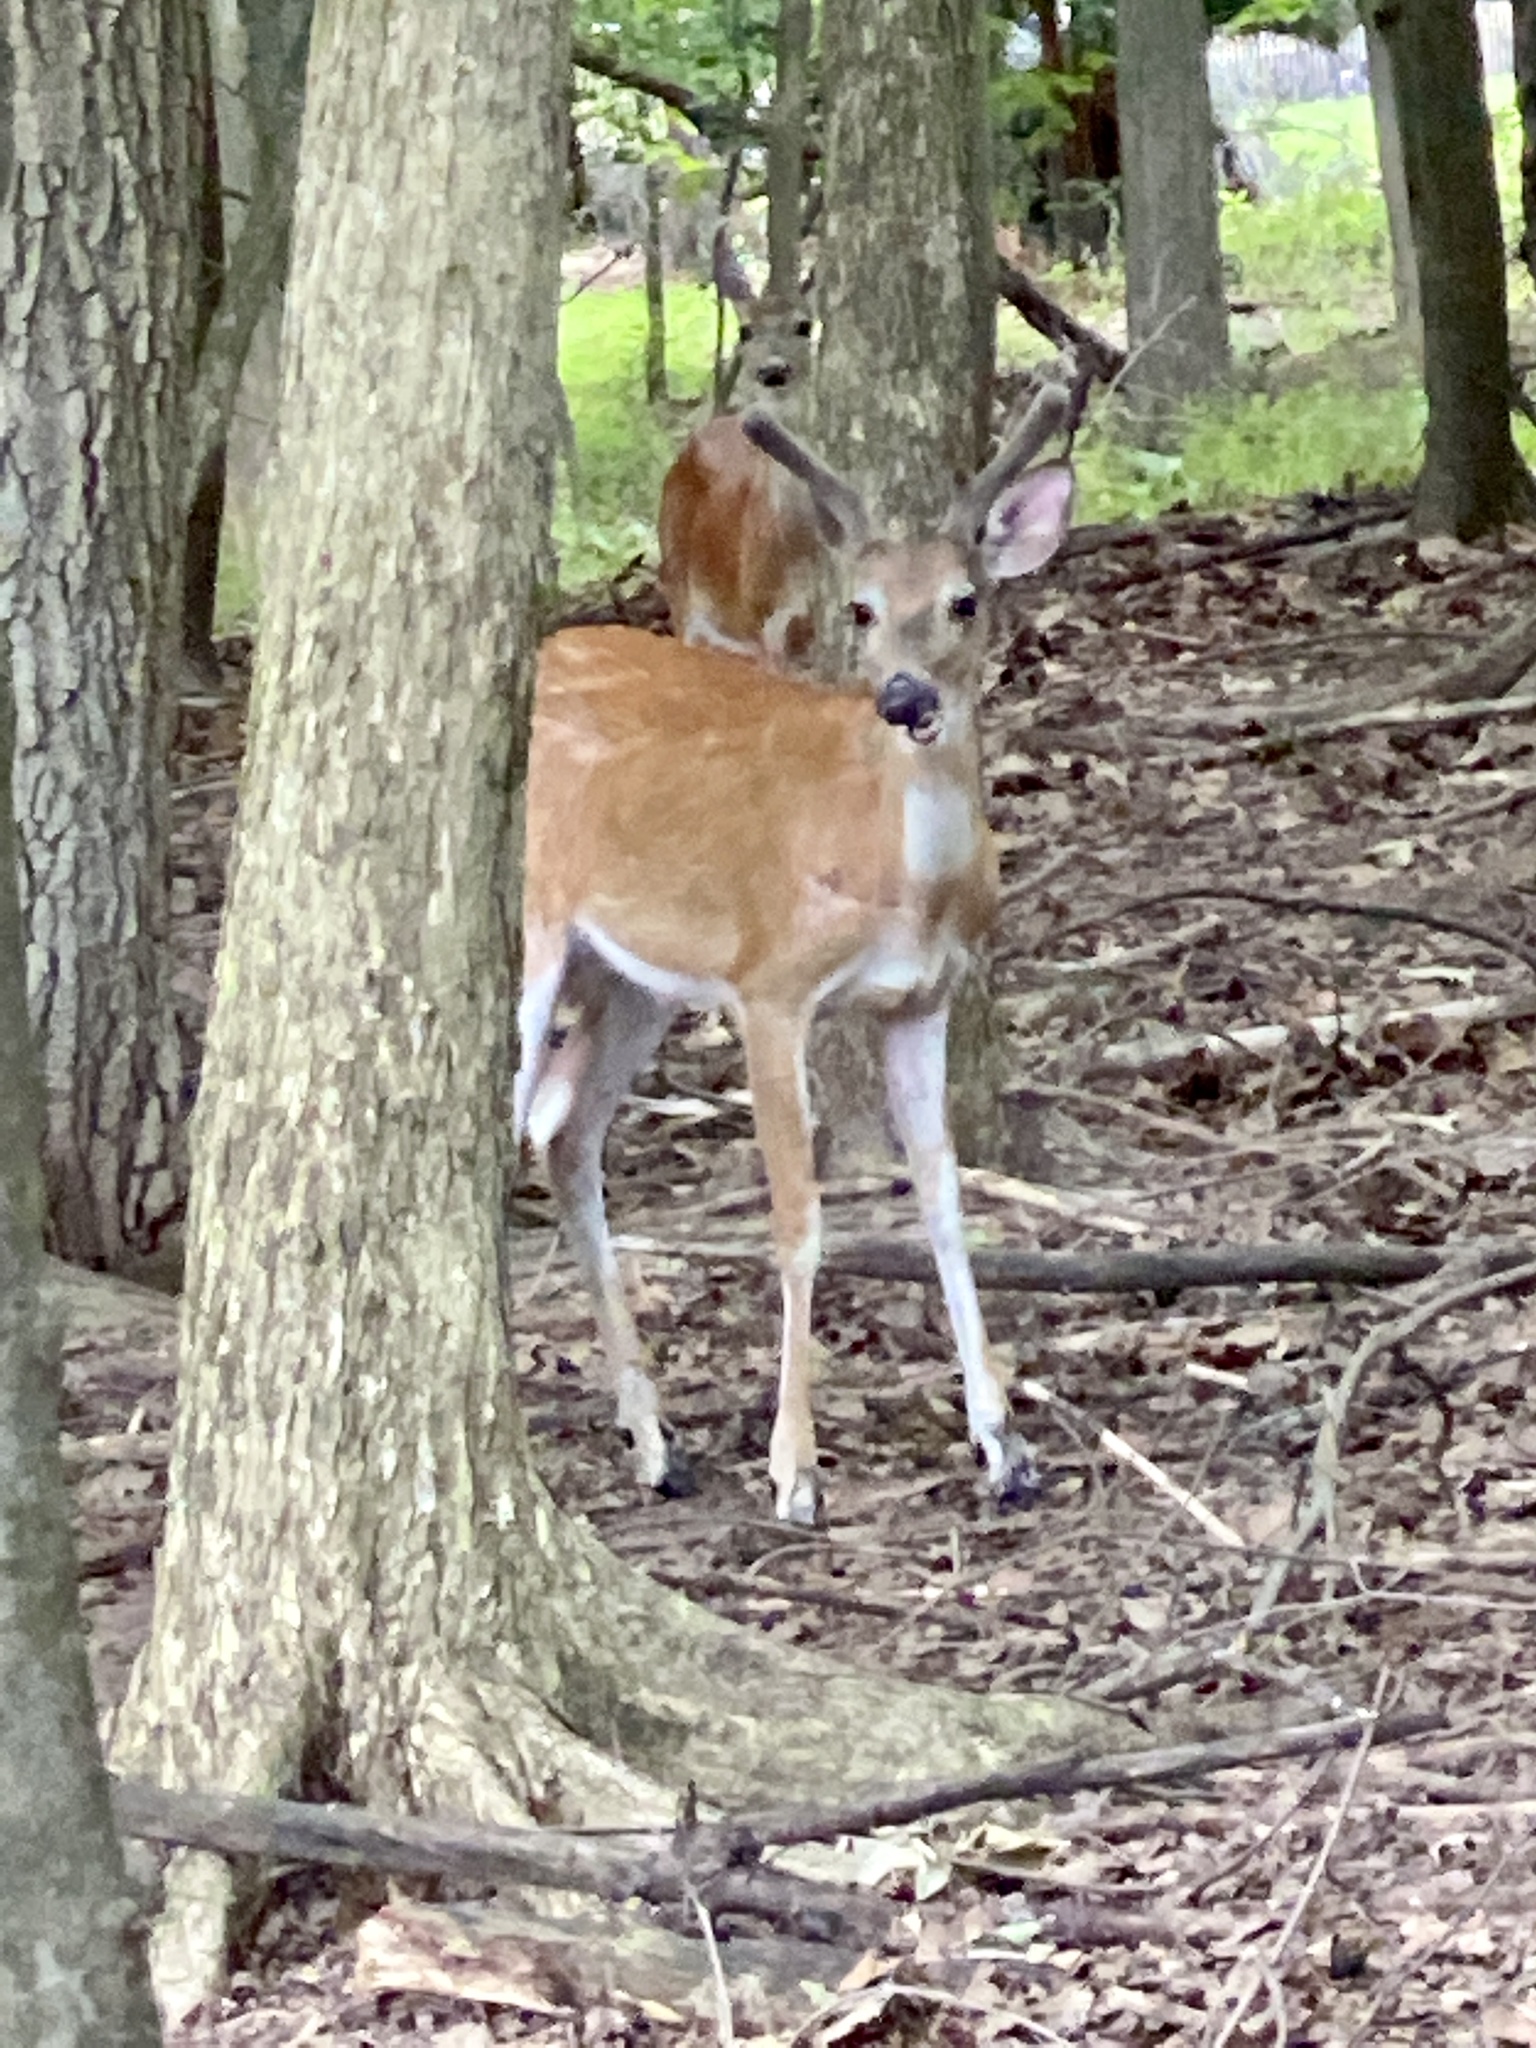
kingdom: Animalia
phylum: Chordata
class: Mammalia
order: Artiodactyla
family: Cervidae
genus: Odocoileus
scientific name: Odocoileus virginianus
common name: White-tailed deer
